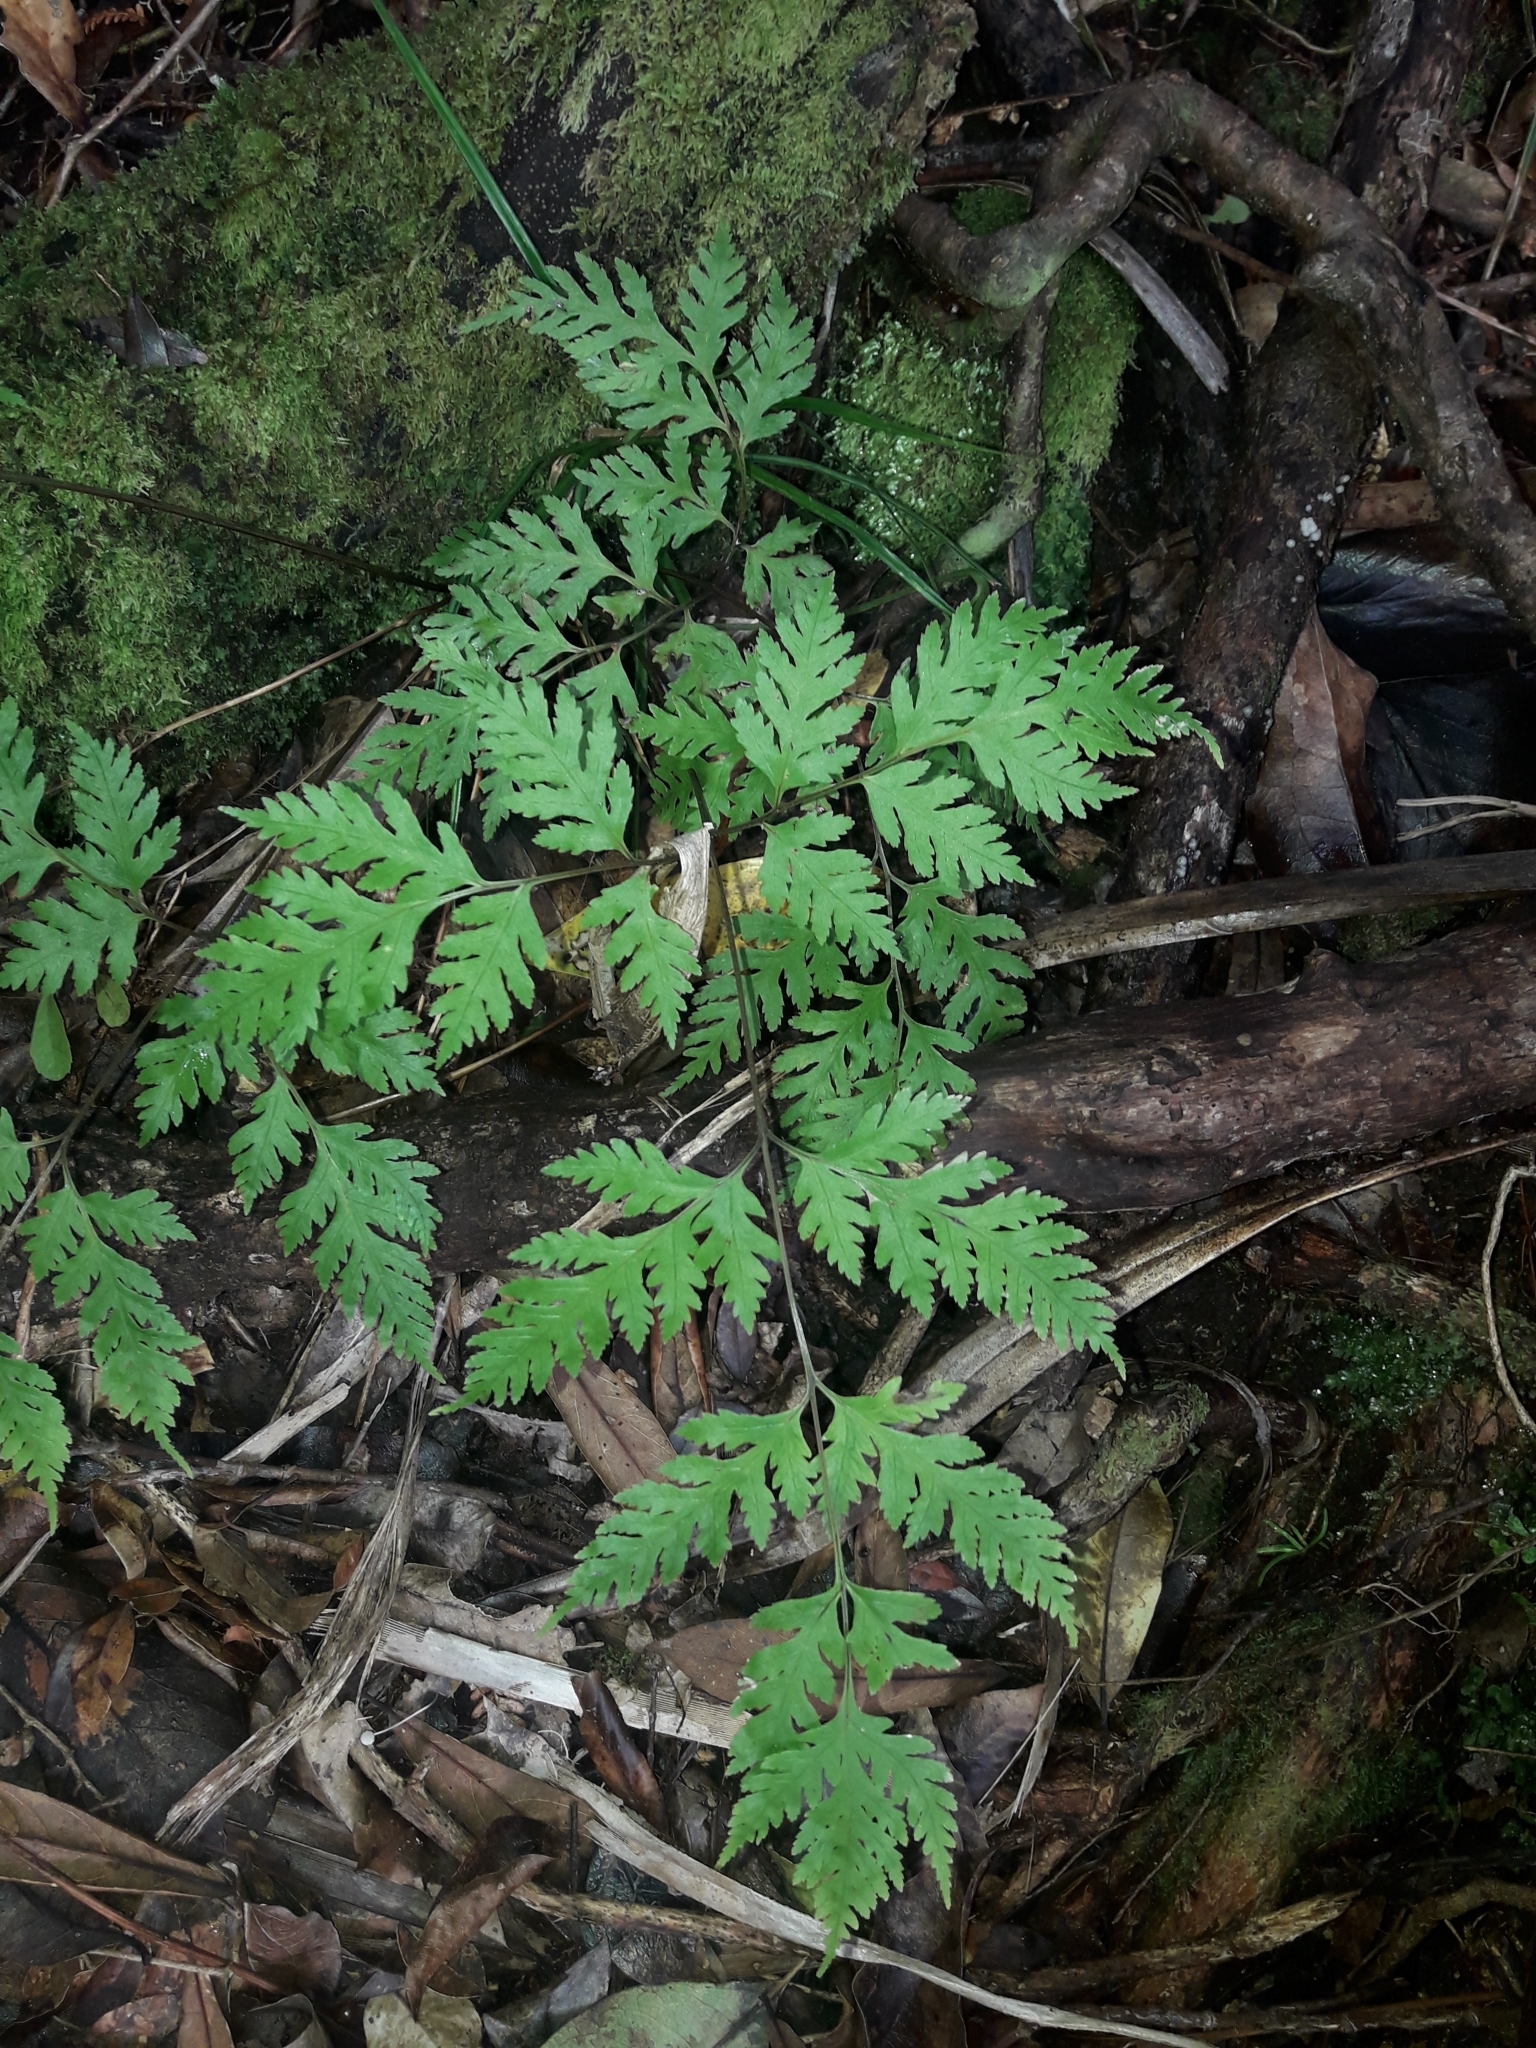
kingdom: Plantae
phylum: Tracheophyta
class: Polypodiopsida
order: Polypodiales
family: Pteridaceae
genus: Pteris
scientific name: Pteris macilenta
